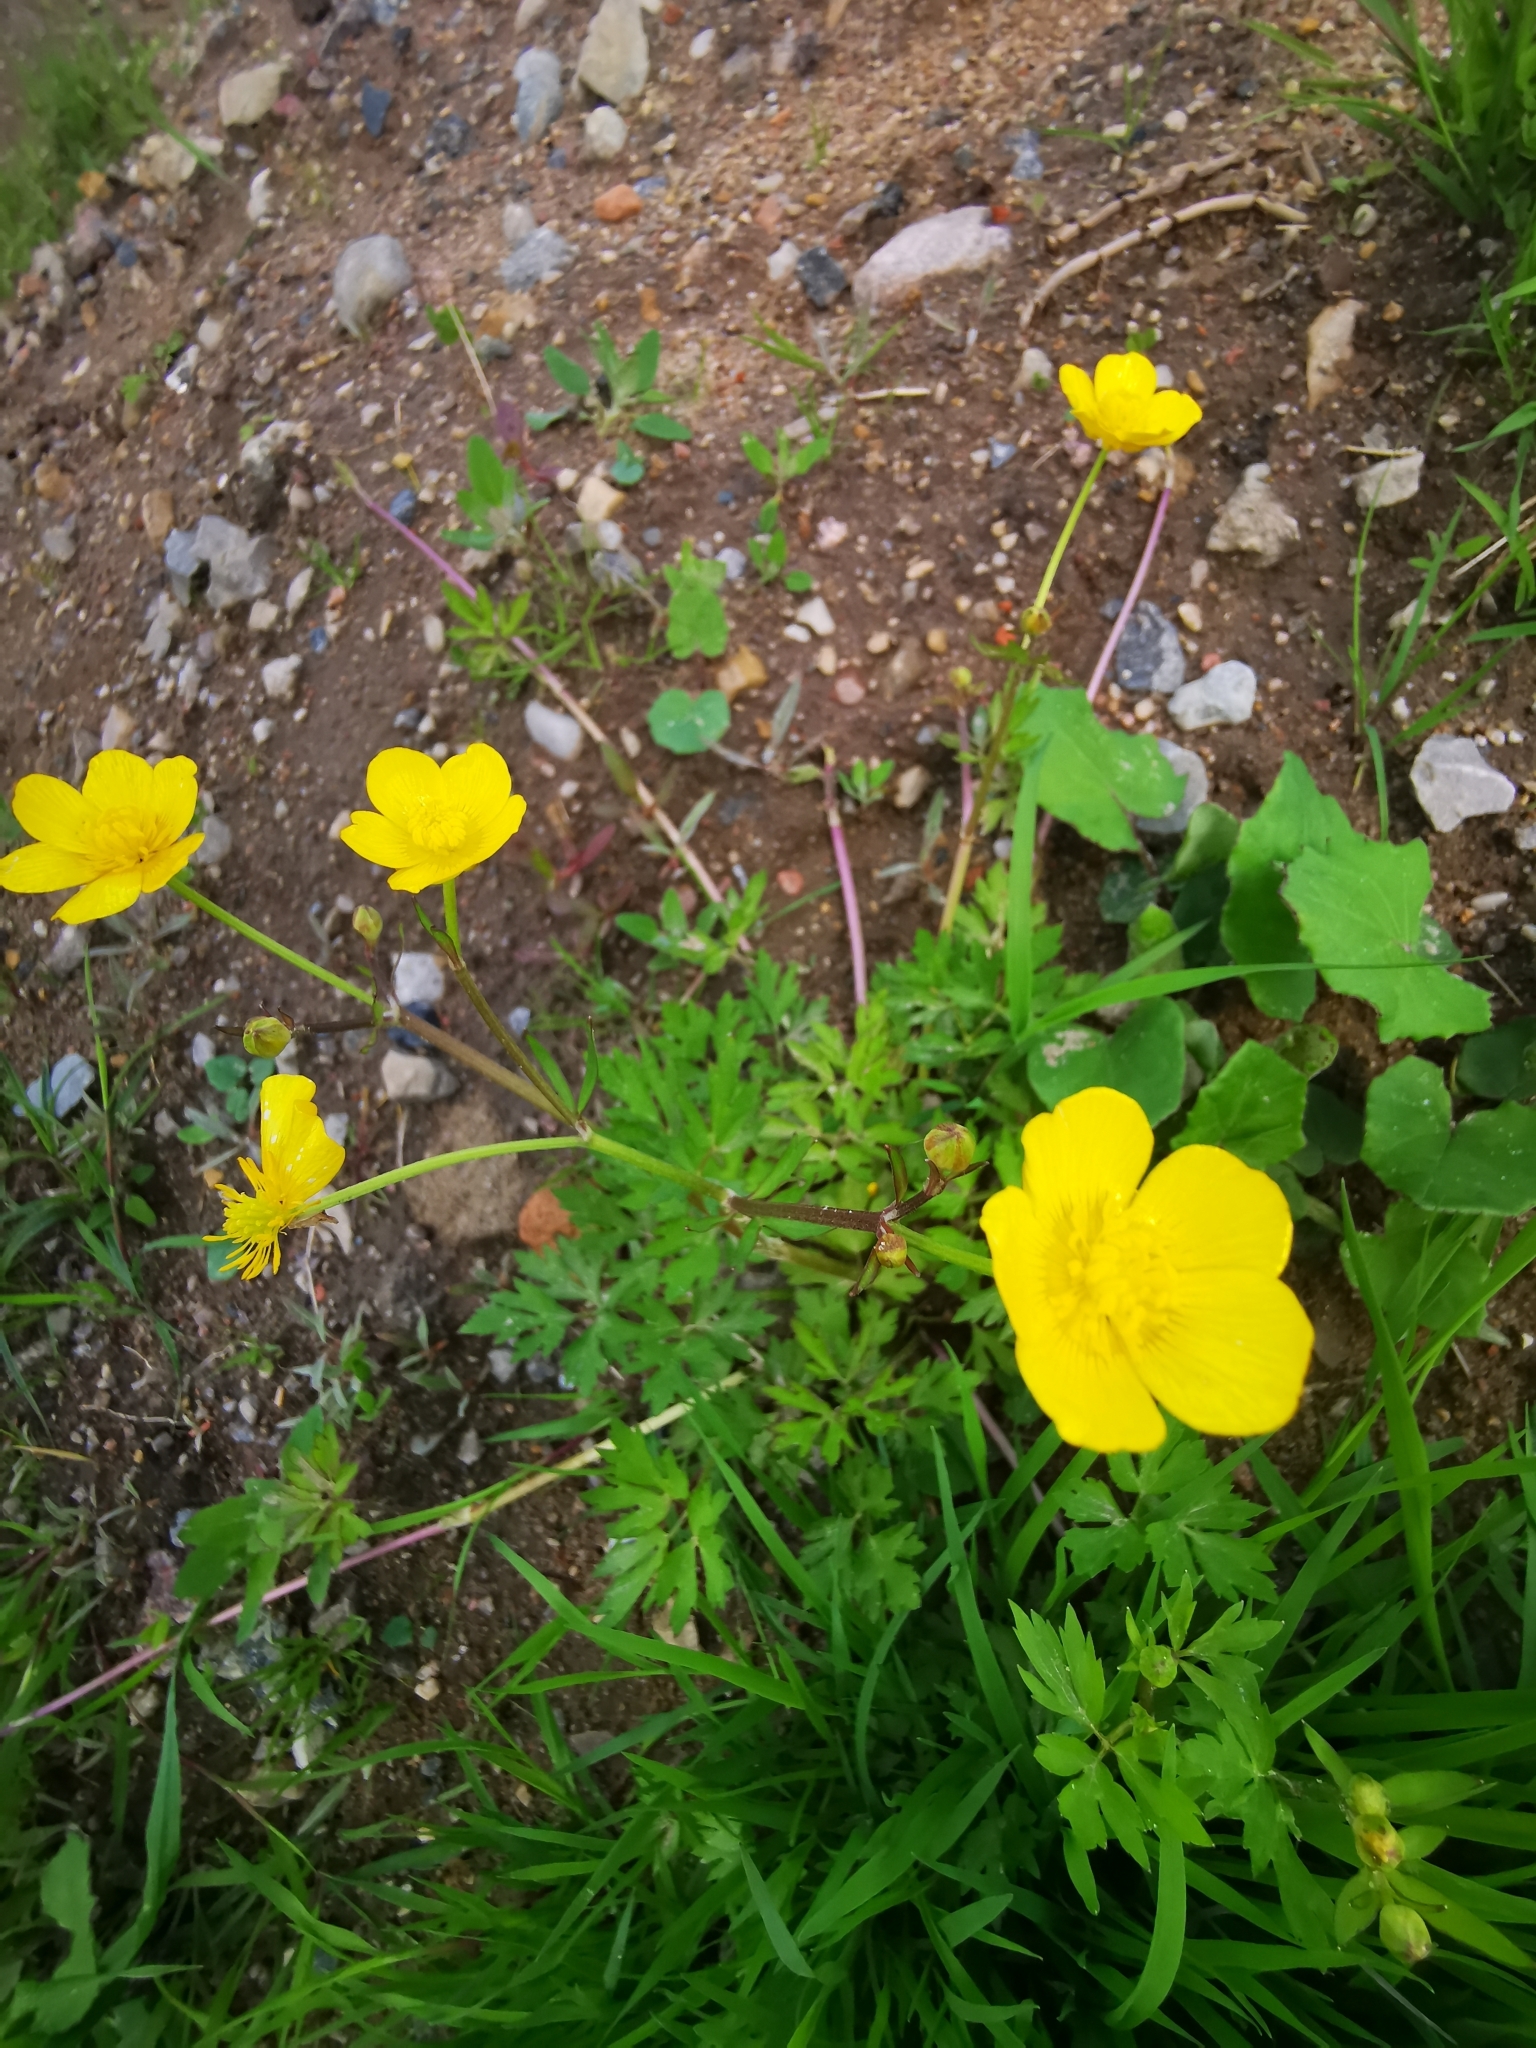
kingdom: Plantae
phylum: Tracheophyta
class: Magnoliopsida
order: Ranunculales
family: Ranunculaceae
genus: Ranunculus
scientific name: Ranunculus repens
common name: Creeping buttercup
